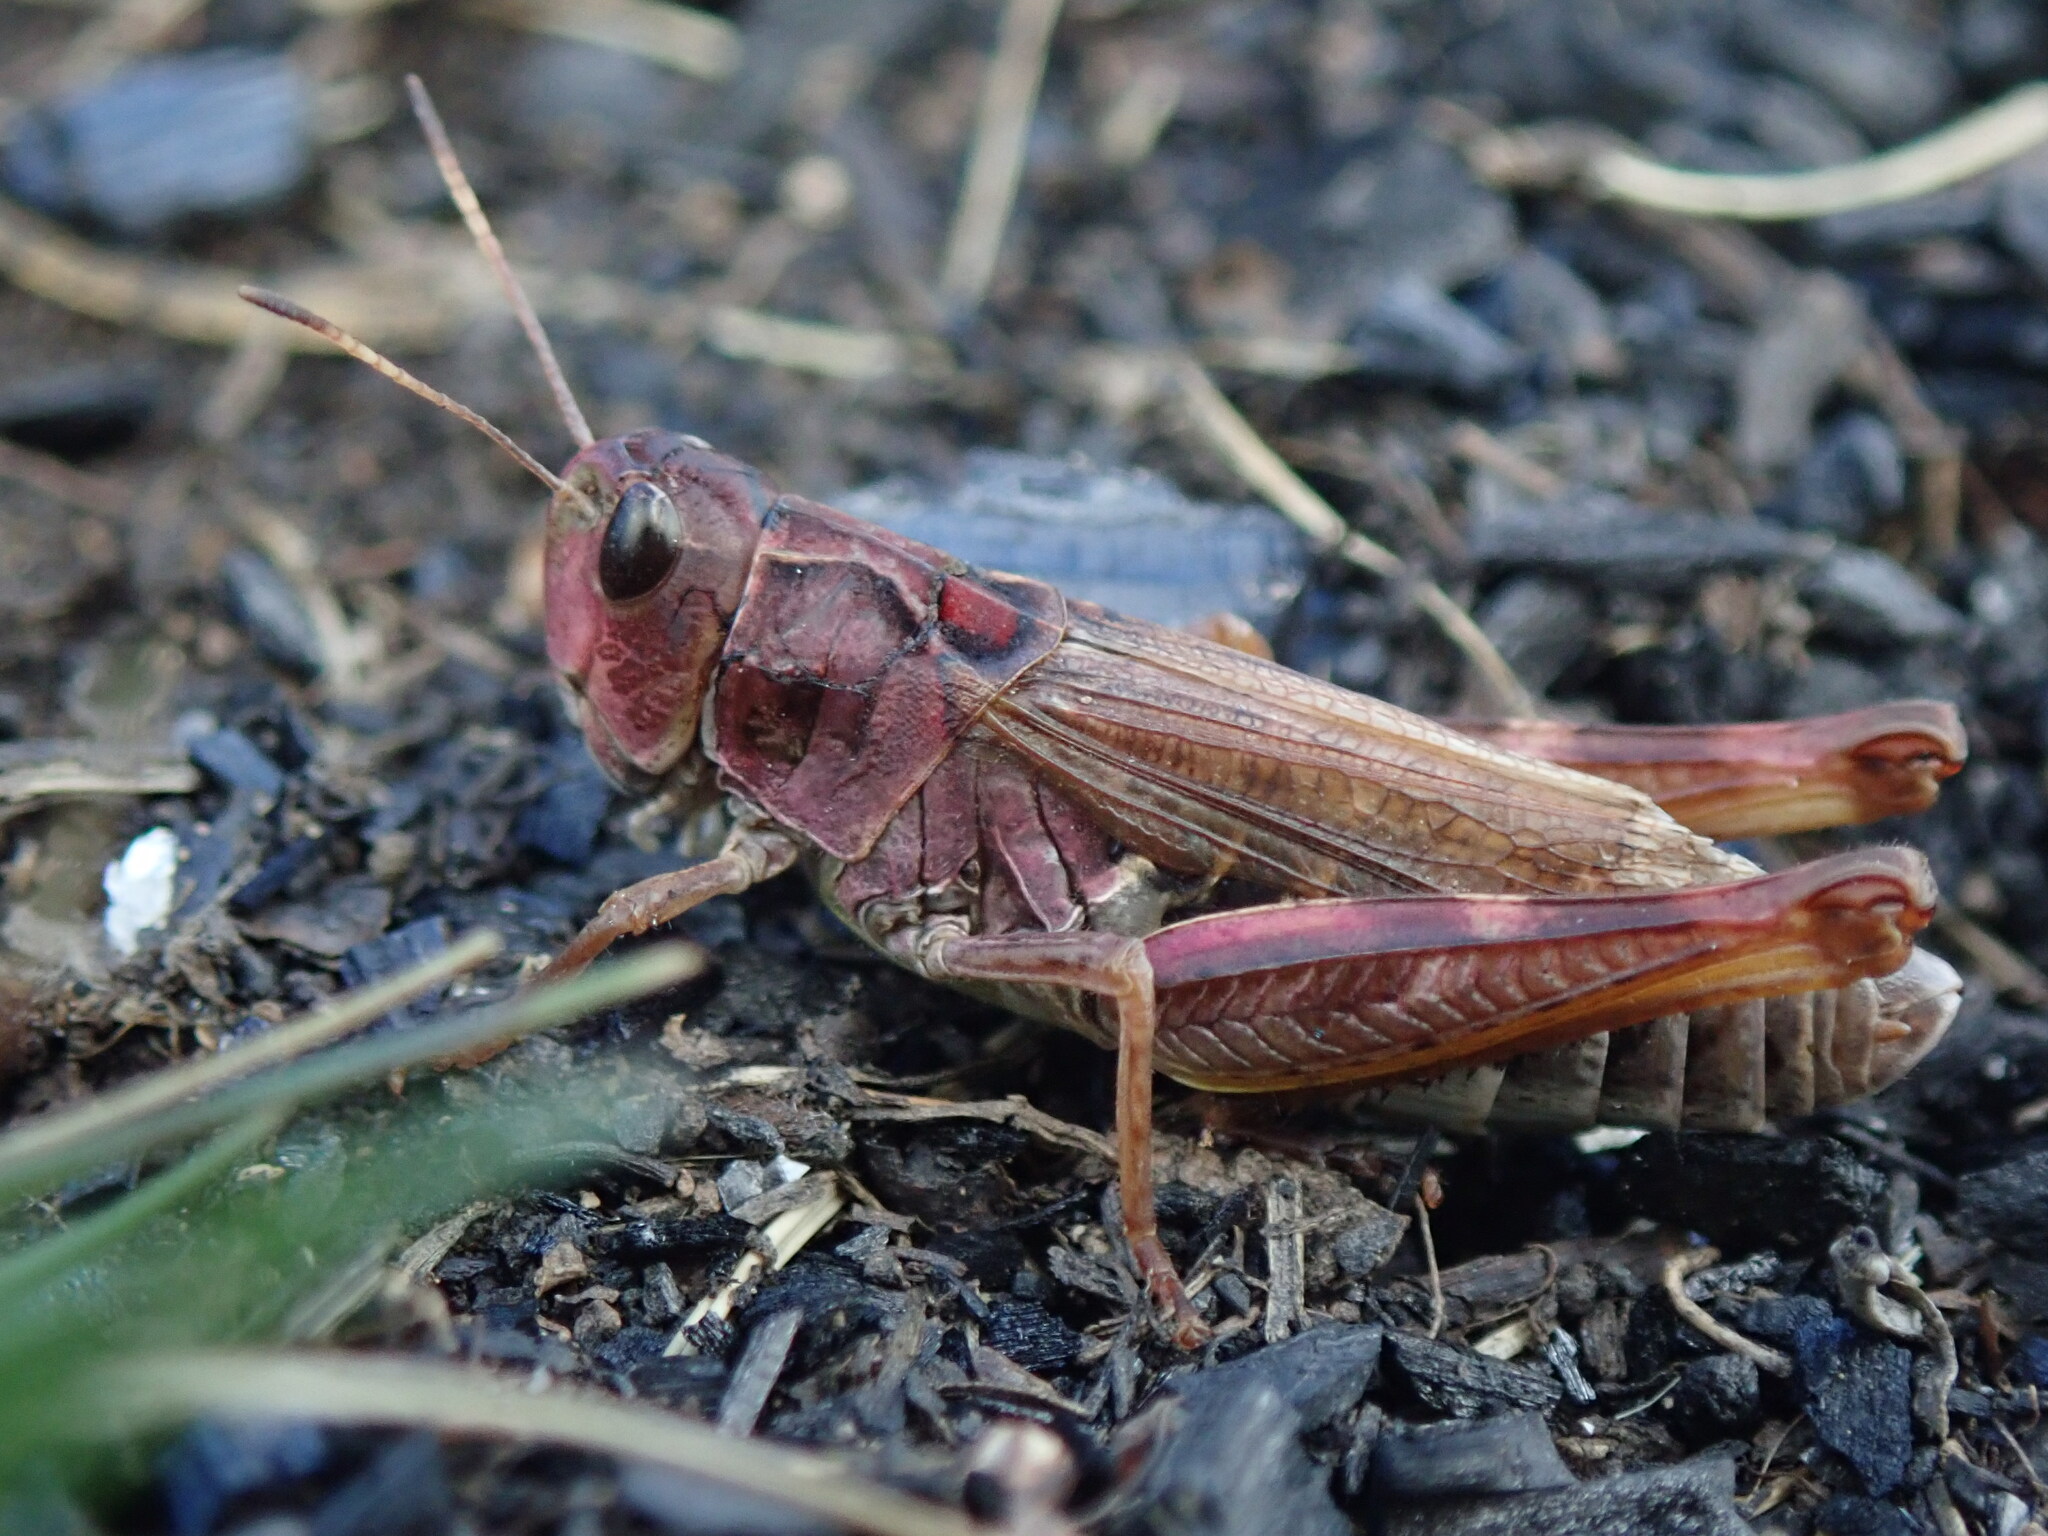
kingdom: Animalia
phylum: Arthropoda
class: Insecta
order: Orthoptera
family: Acrididae
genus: Gomphocerus
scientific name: Gomphocerus sibiricus
